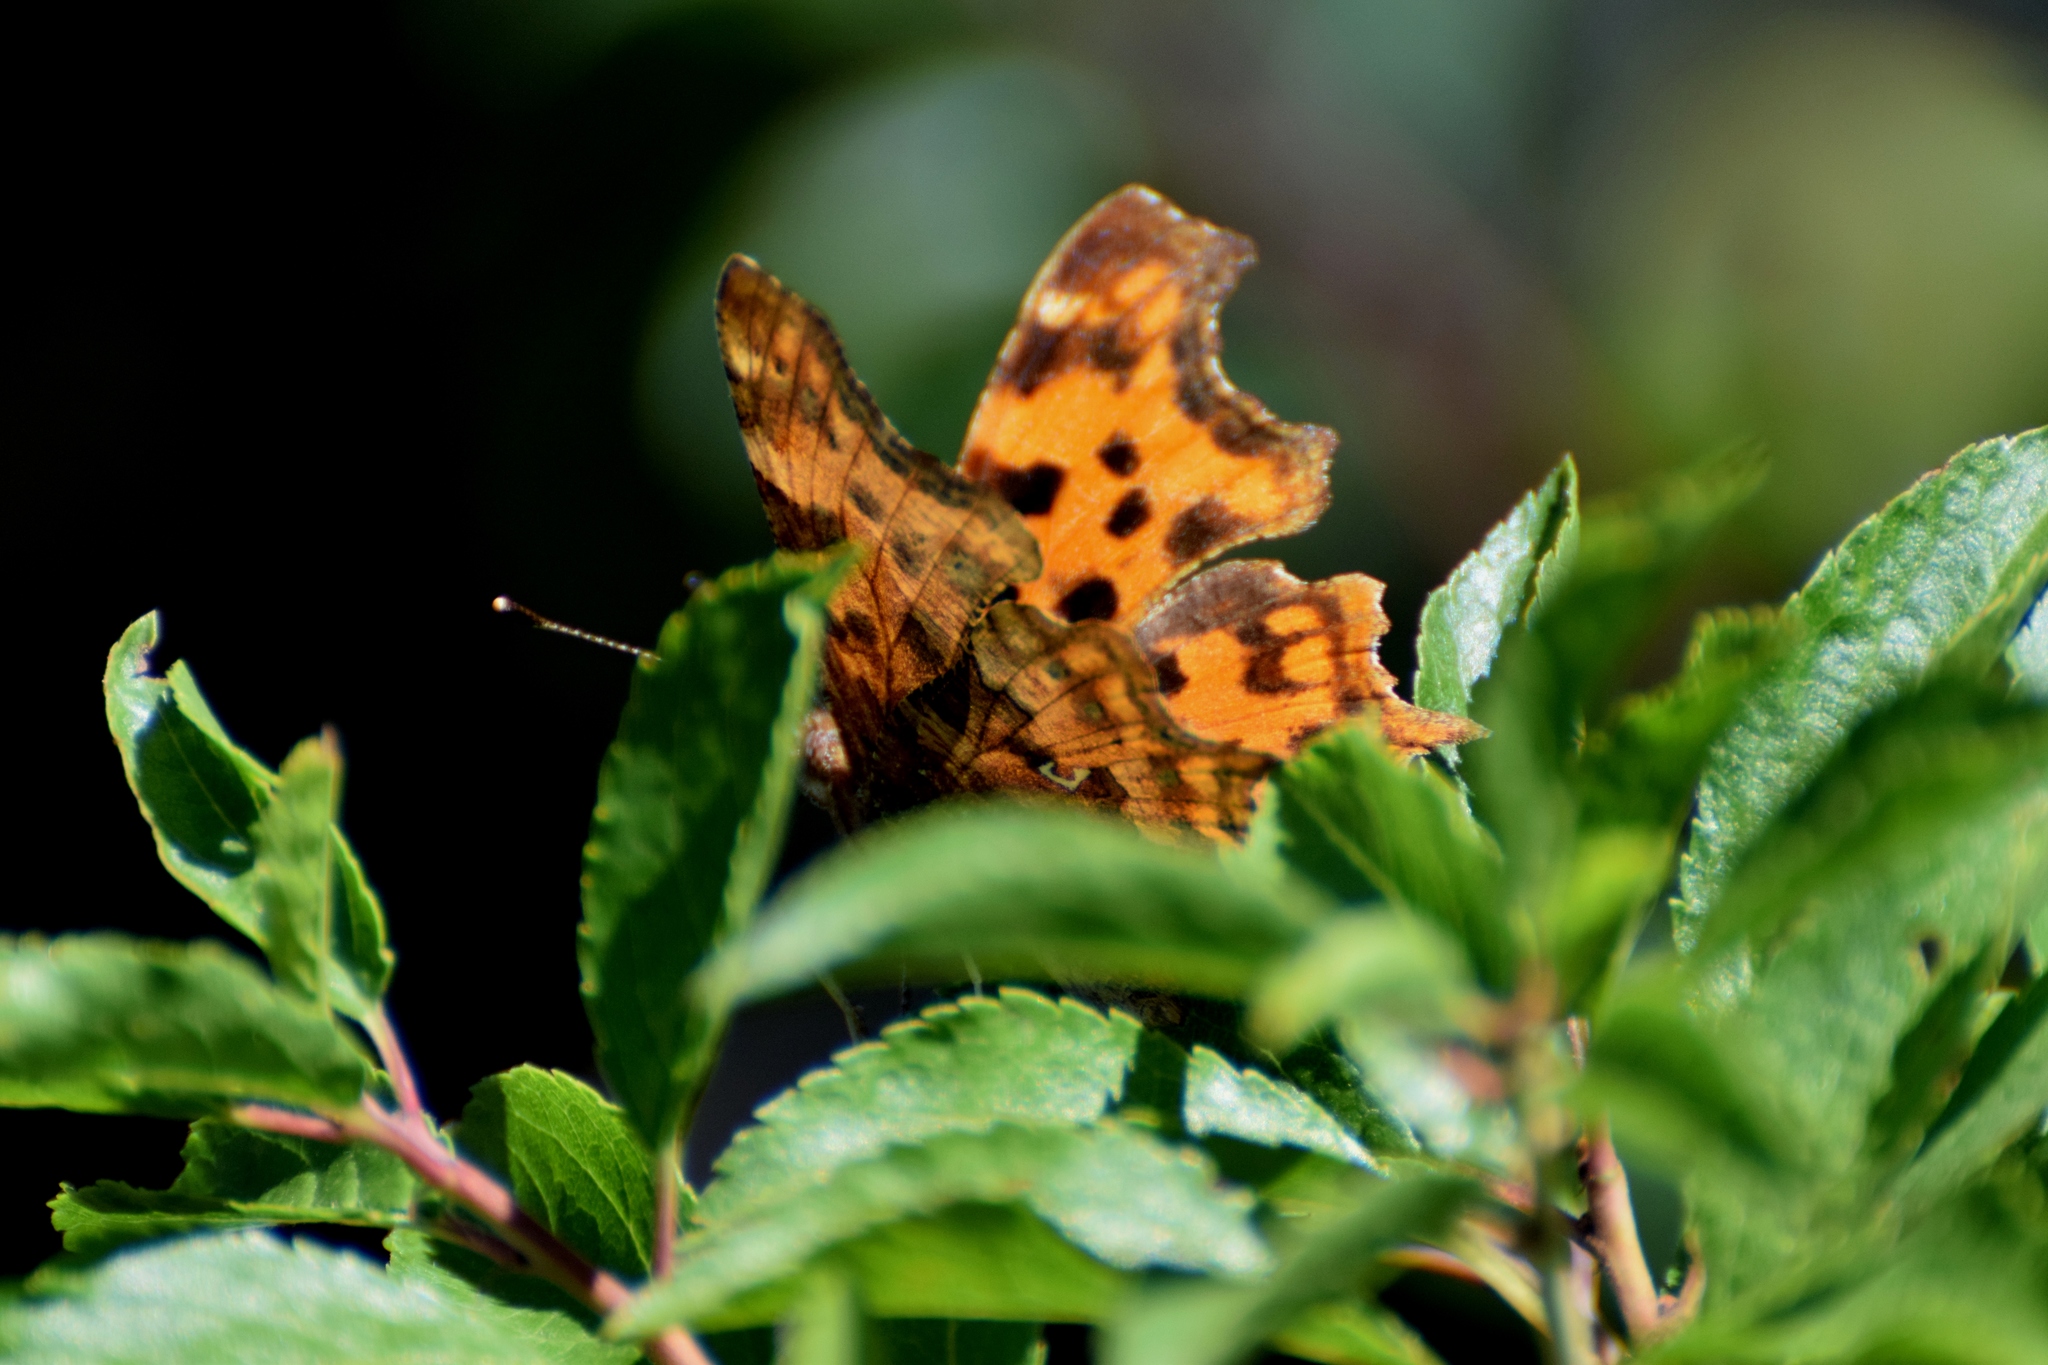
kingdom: Animalia
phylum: Arthropoda
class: Insecta
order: Lepidoptera
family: Nymphalidae
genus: Polygonia
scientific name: Polygonia c-album
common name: Comma
